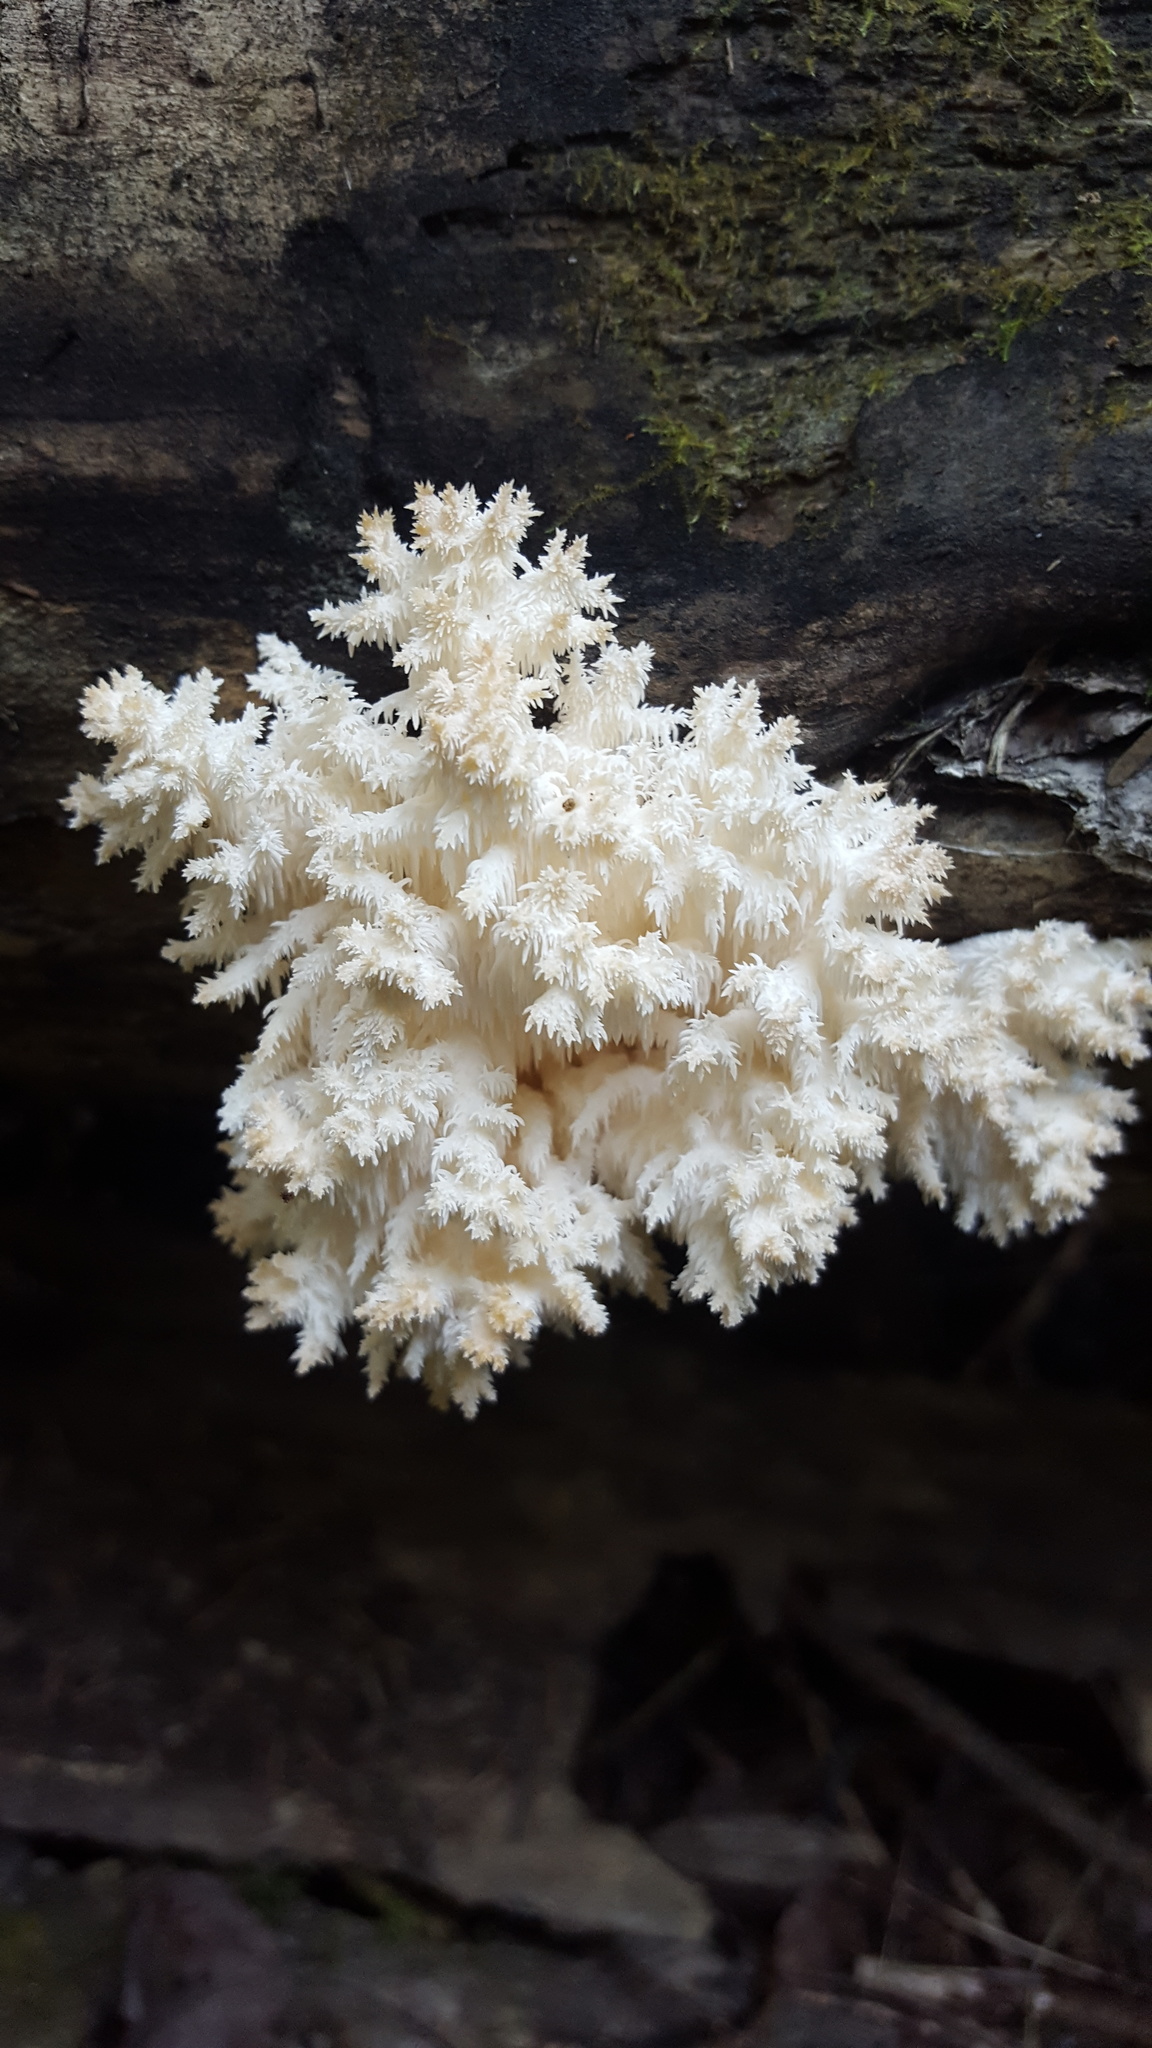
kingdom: Fungi
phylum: Basidiomycota
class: Agaricomycetes
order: Russulales
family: Hericiaceae
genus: Hericium
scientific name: Hericium coralloides
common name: Coral tooth
